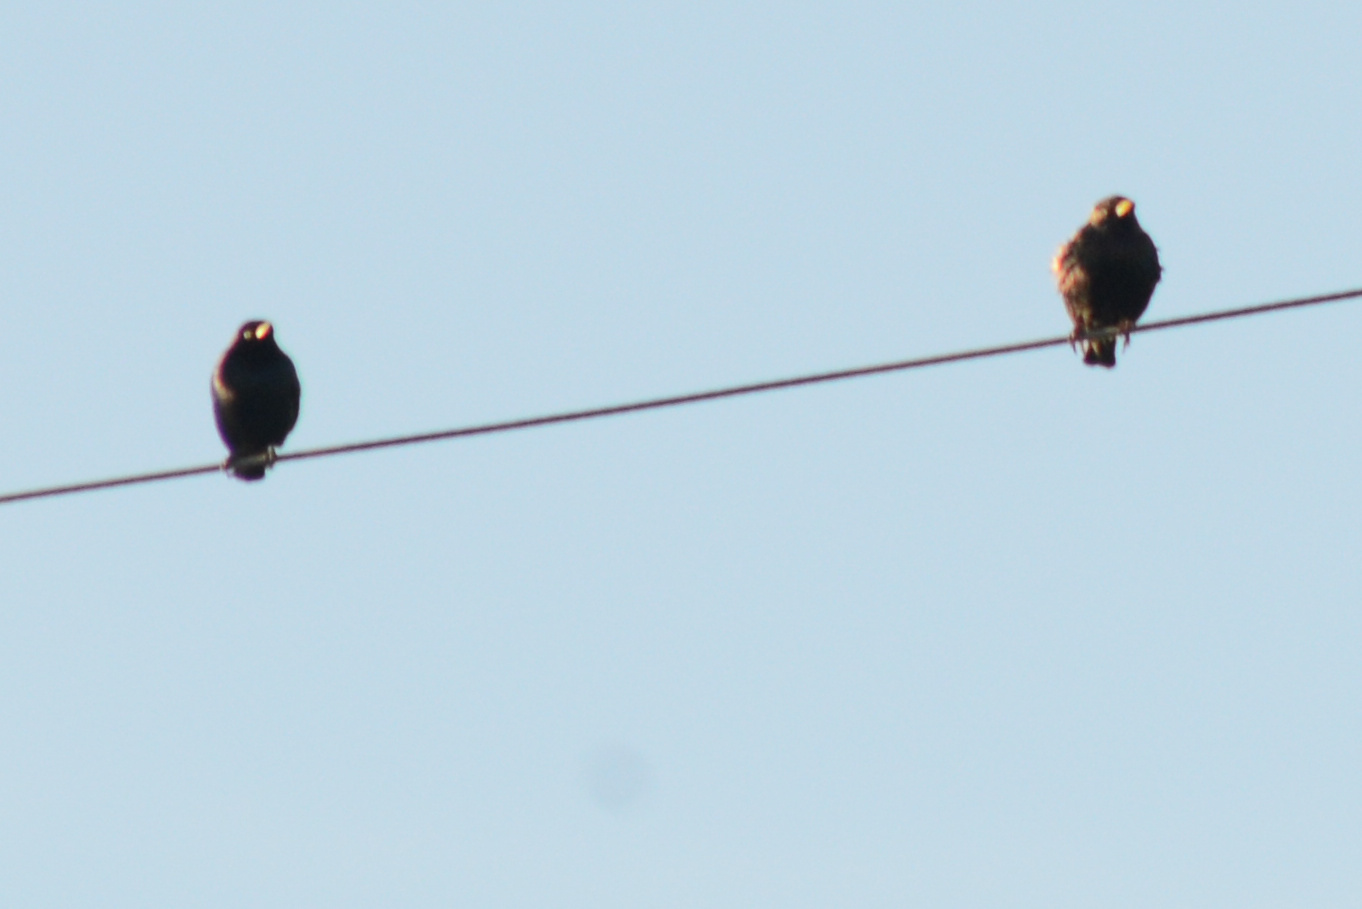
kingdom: Animalia
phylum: Chordata
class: Aves
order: Passeriformes
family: Icteridae
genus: Euphagus
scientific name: Euphagus cyanocephalus
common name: Brewer's blackbird
